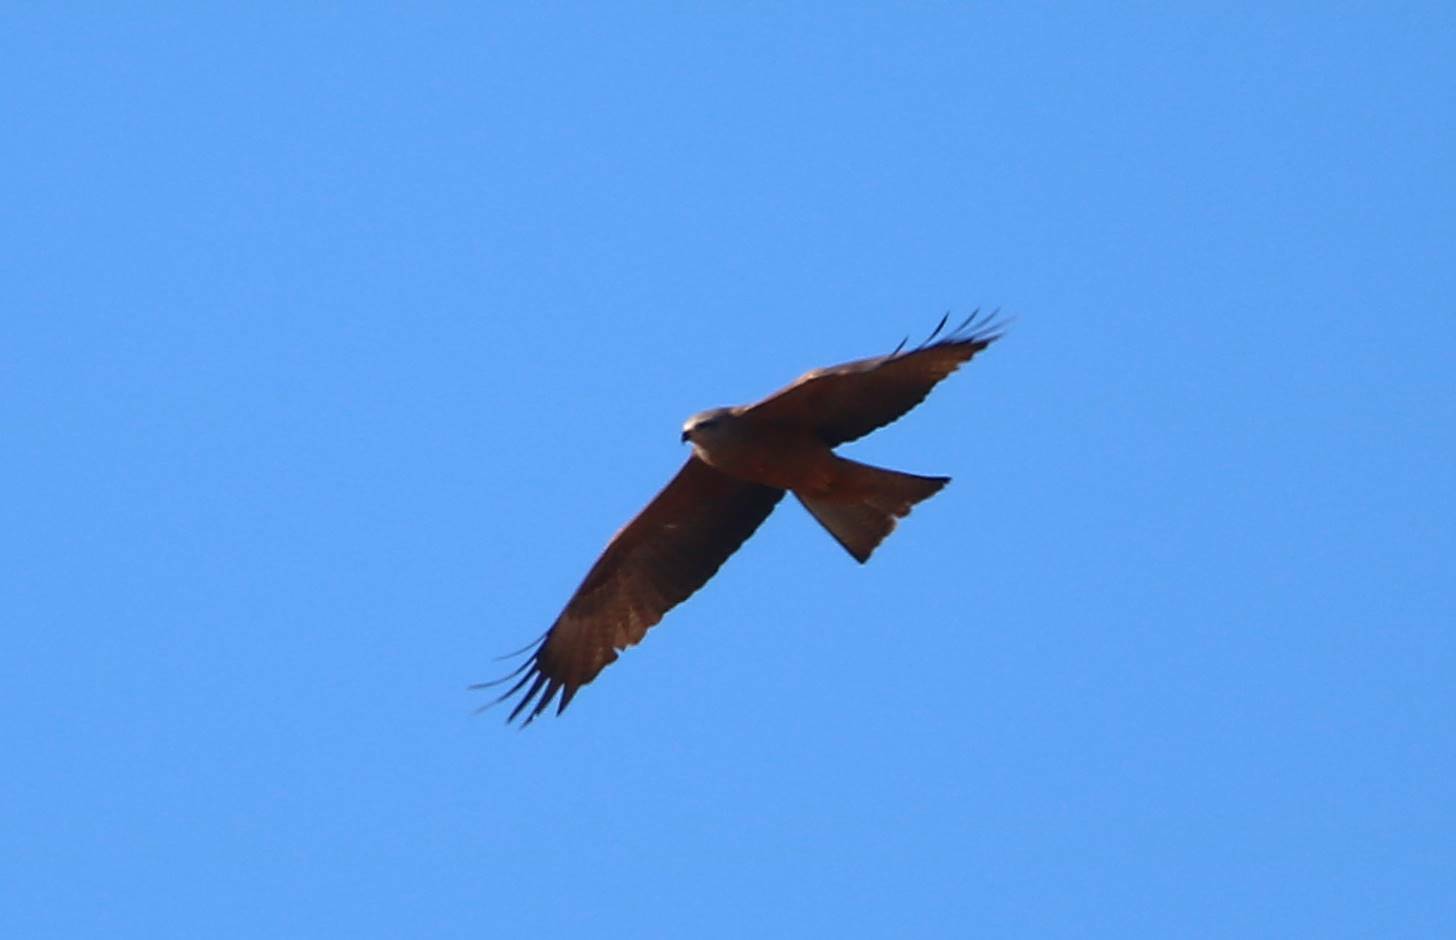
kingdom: Animalia
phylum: Chordata
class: Aves
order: Accipitriformes
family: Accipitridae
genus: Milvus
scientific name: Milvus migrans
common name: Black kite
